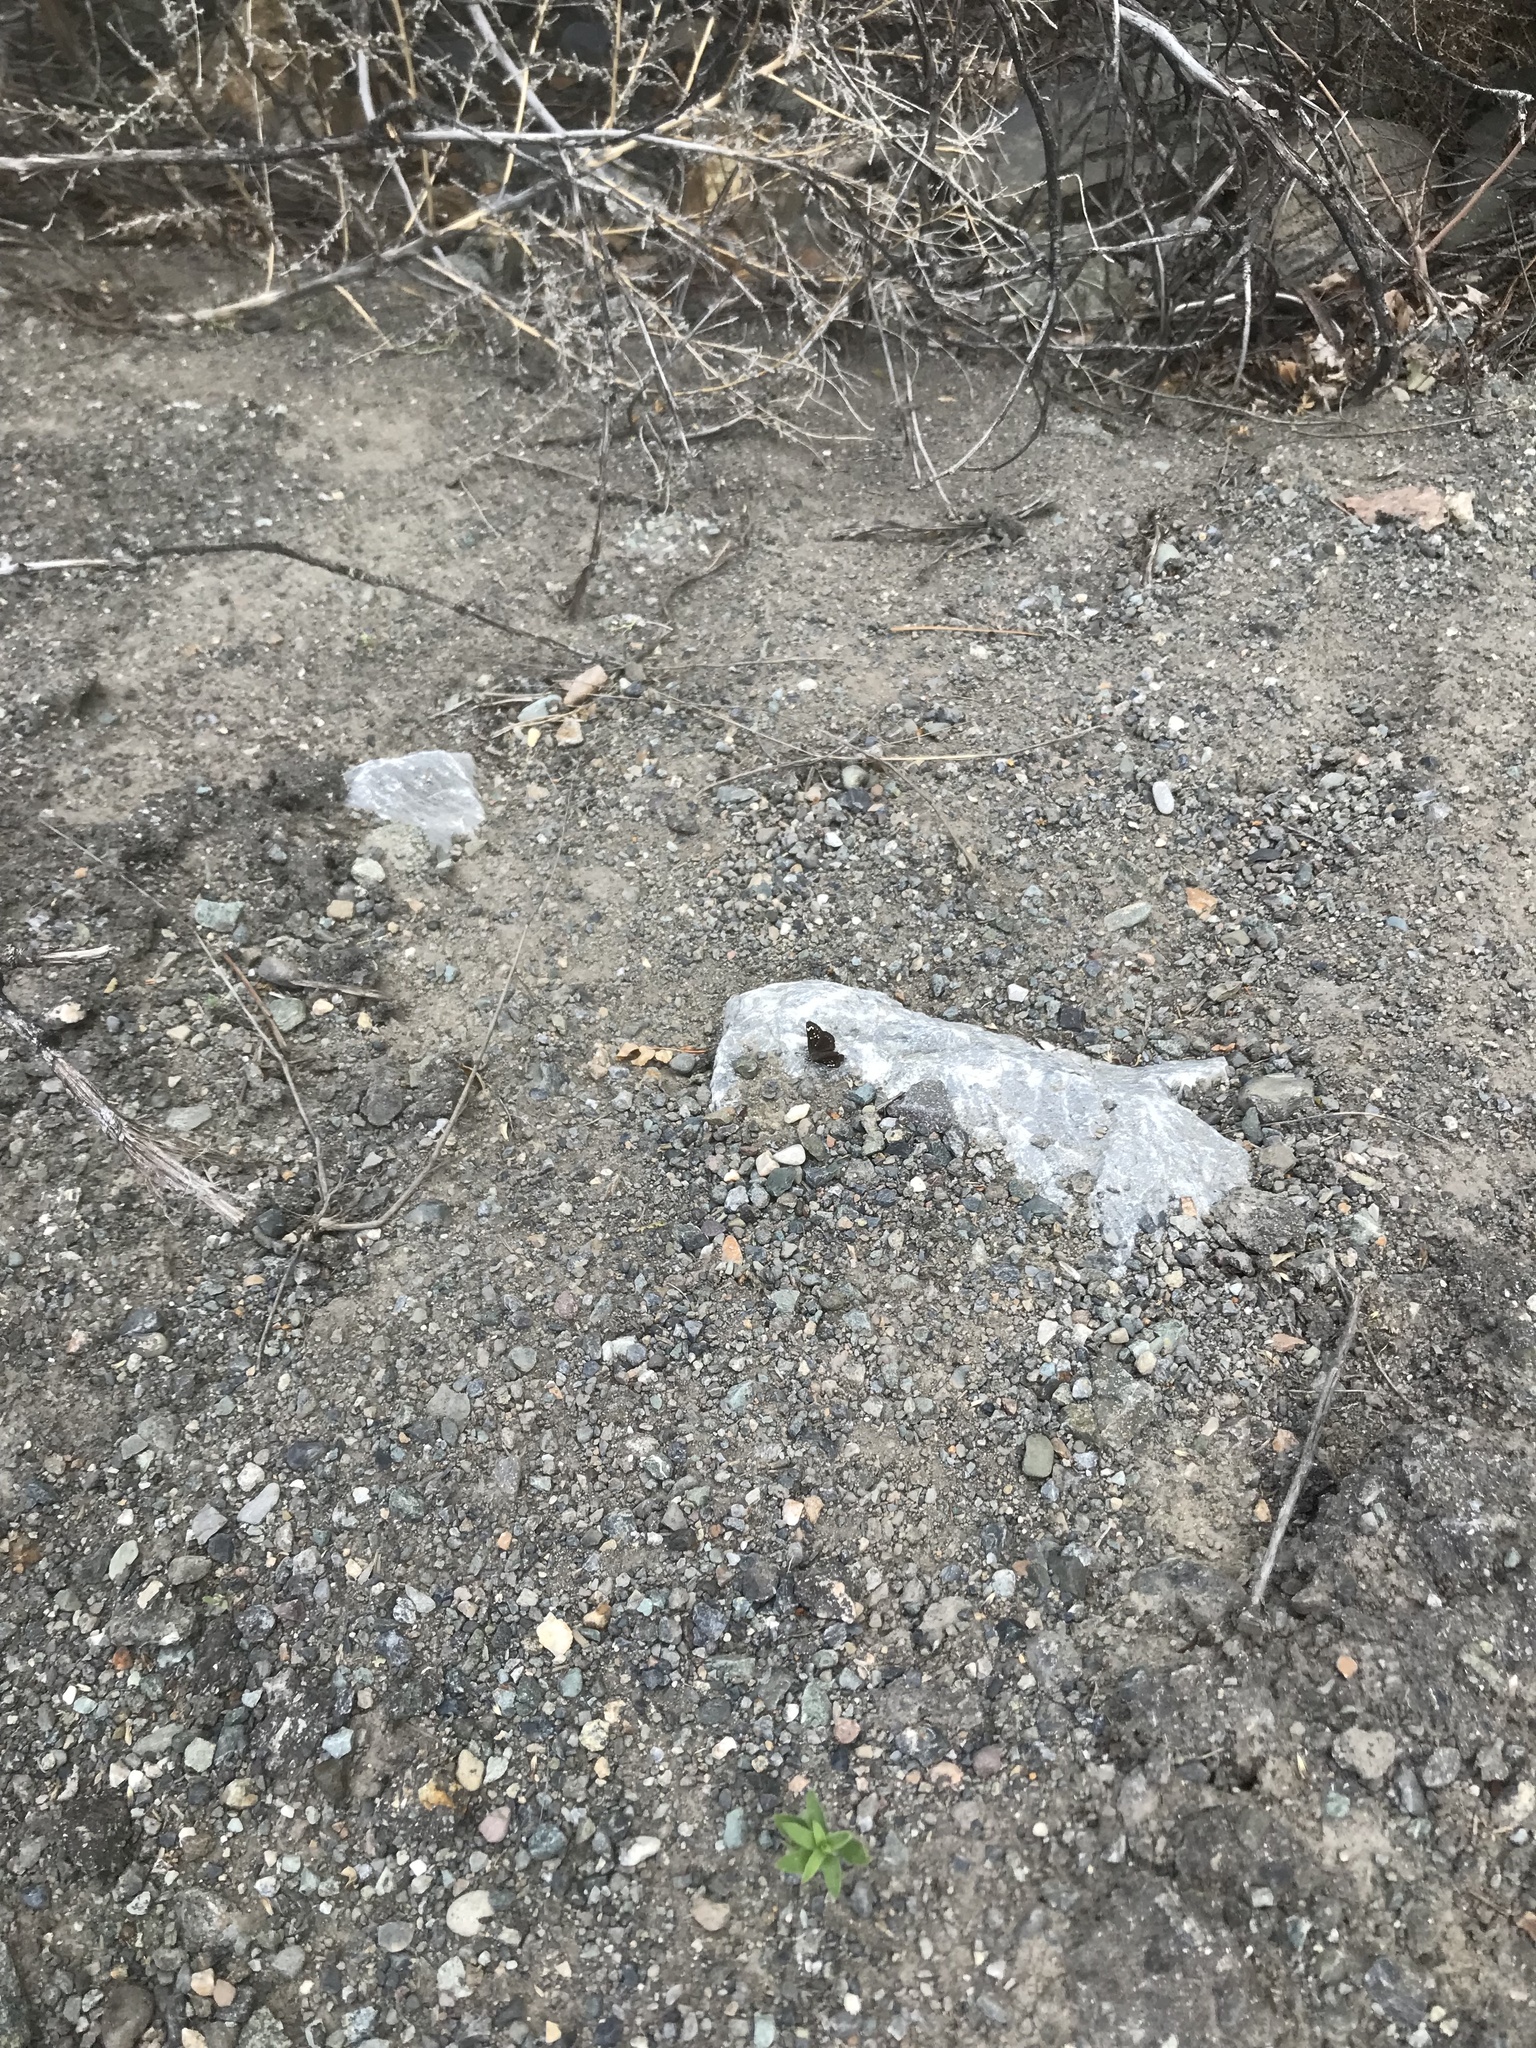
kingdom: Animalia
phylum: Arthropoda
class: Insecta
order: Lepidoptera
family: Hesperiidae
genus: Pholisora
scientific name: Pholisora catullus
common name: Common sootywing
